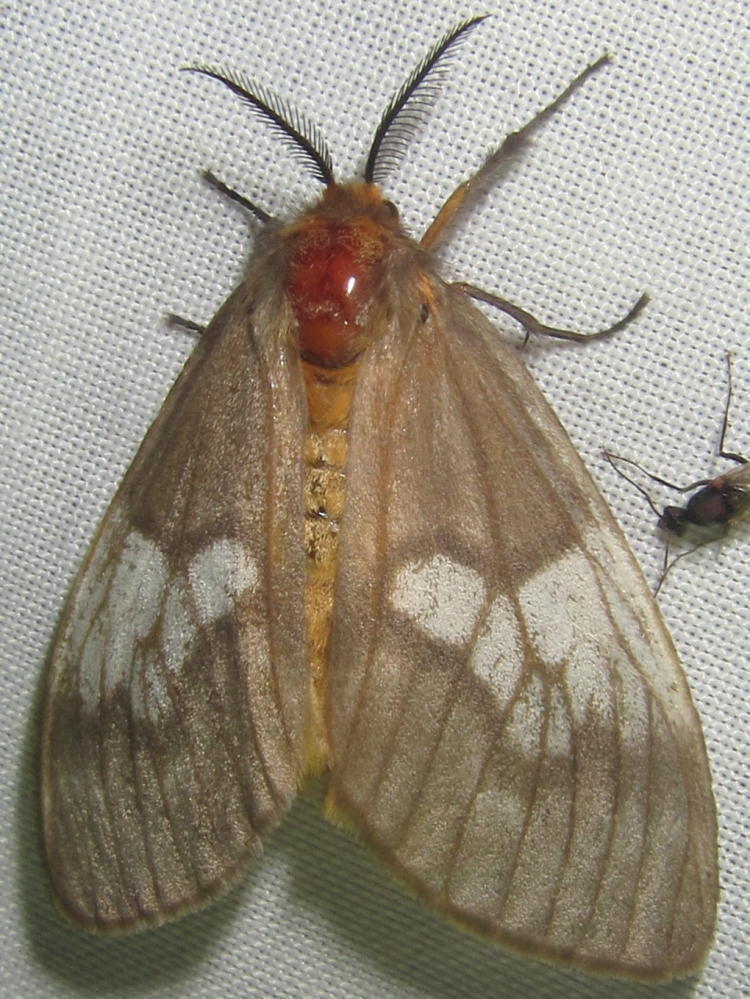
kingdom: Animalia
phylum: Arthropoda
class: Insecta
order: Lepidoptera
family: Erebidae
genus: Palasea
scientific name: Palasea albimacula
